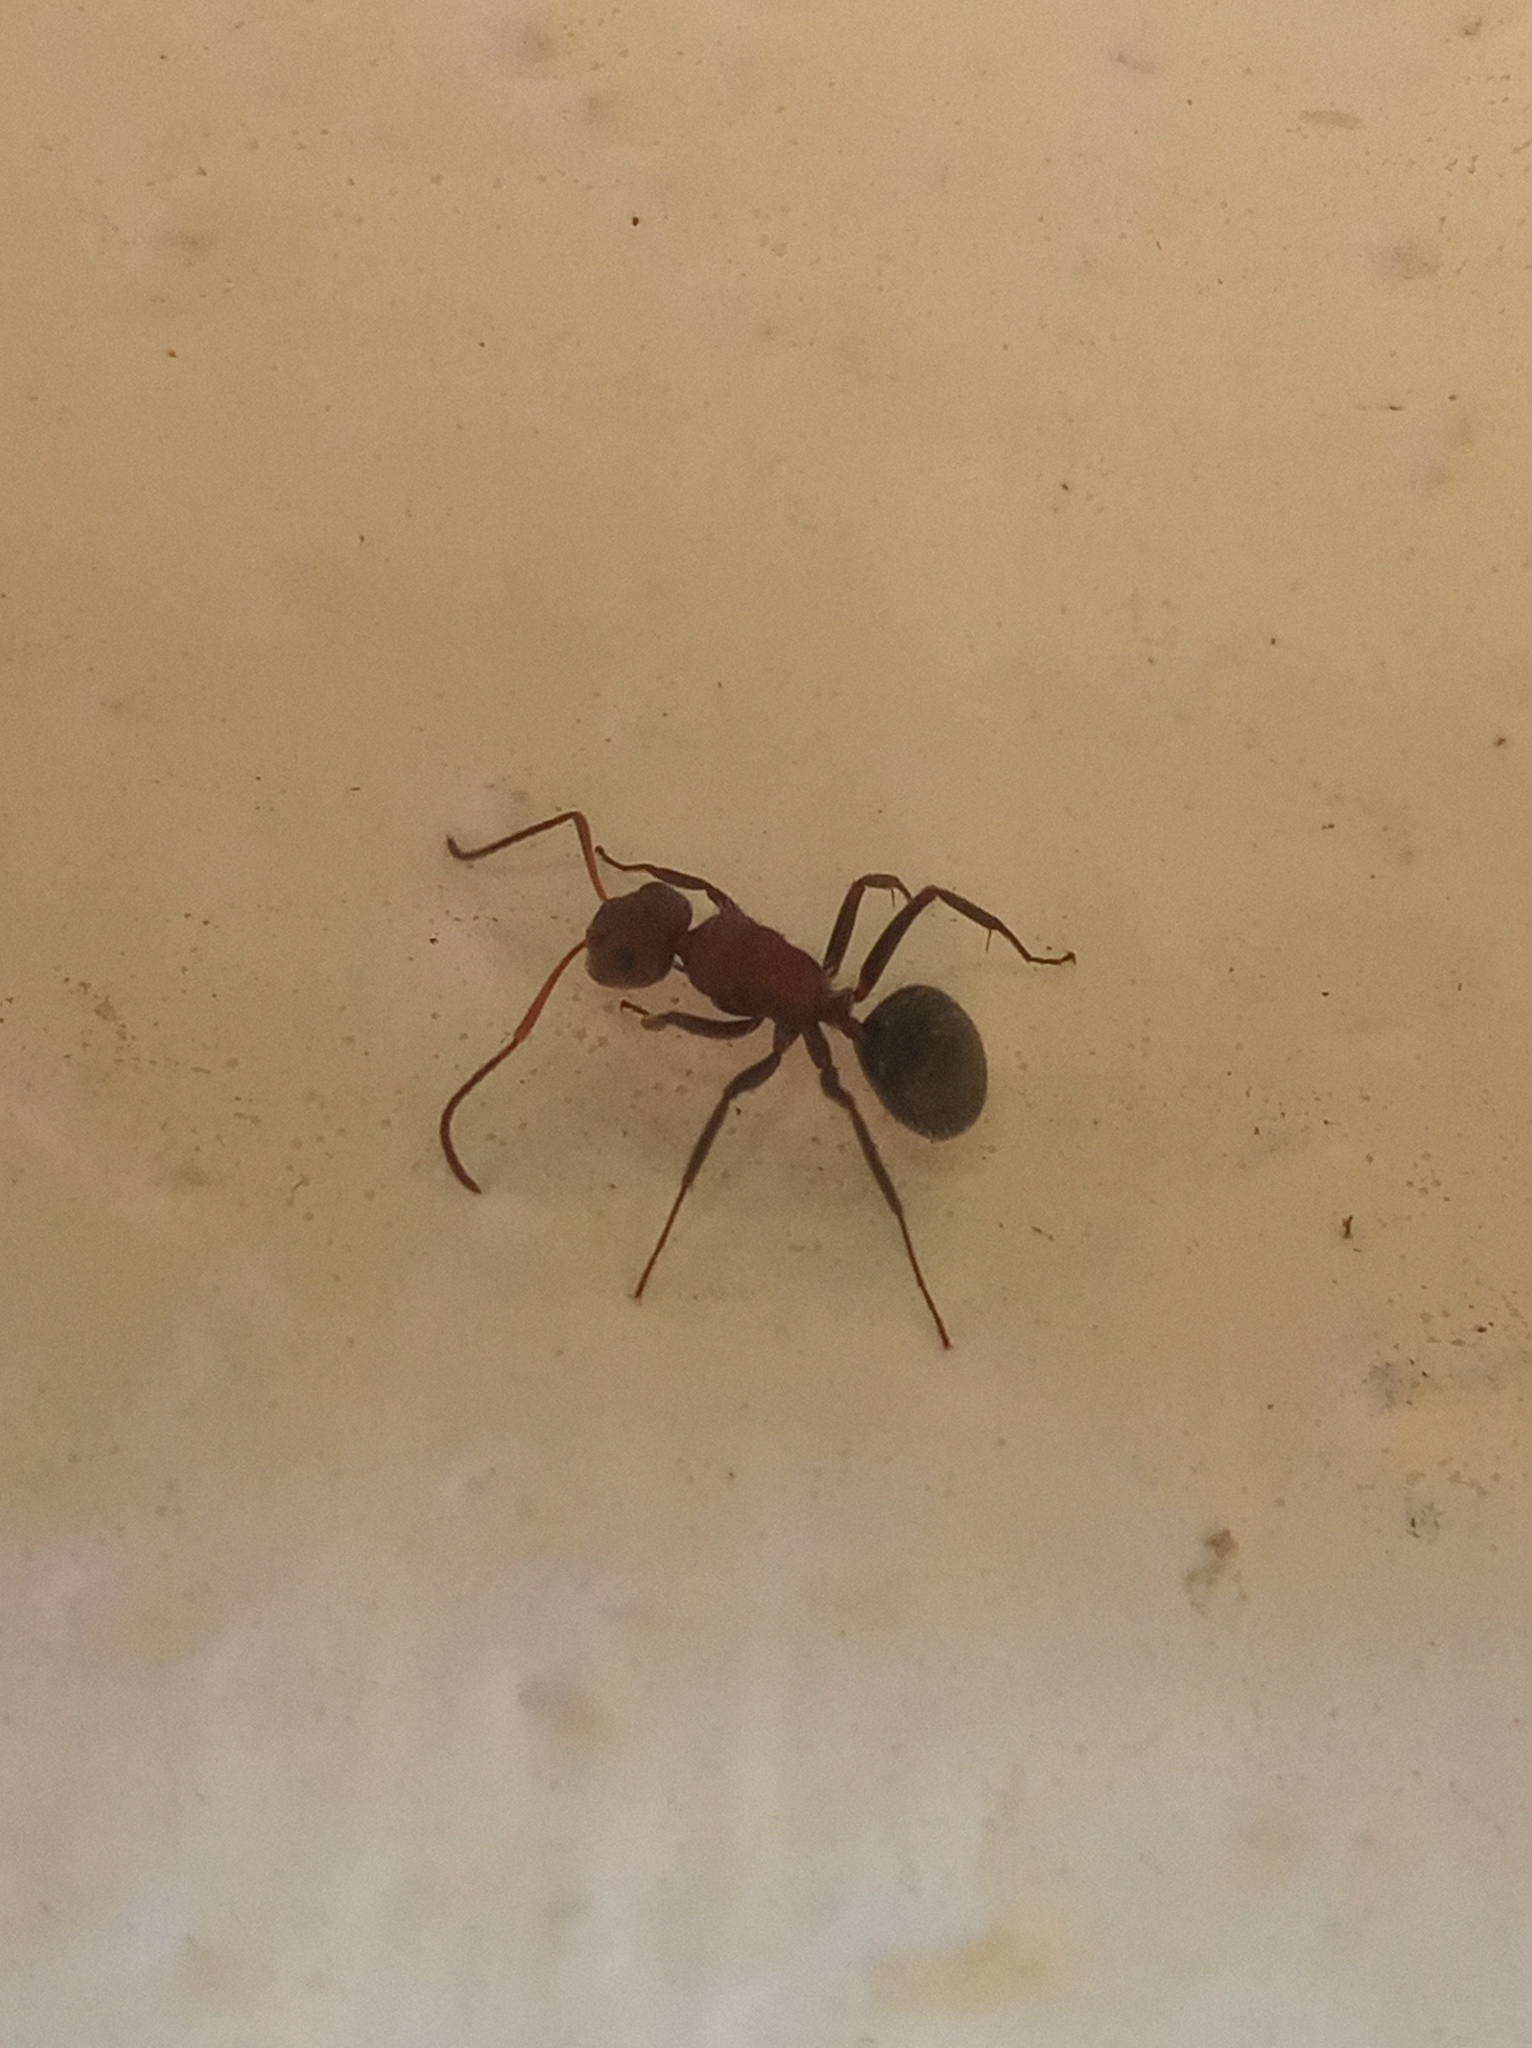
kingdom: Animalia
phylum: Arthropoda
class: Insecta
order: Hymenoptera
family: Formicidae
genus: Camponotus
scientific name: Camponotus planatus
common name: Compact carpenter ant
